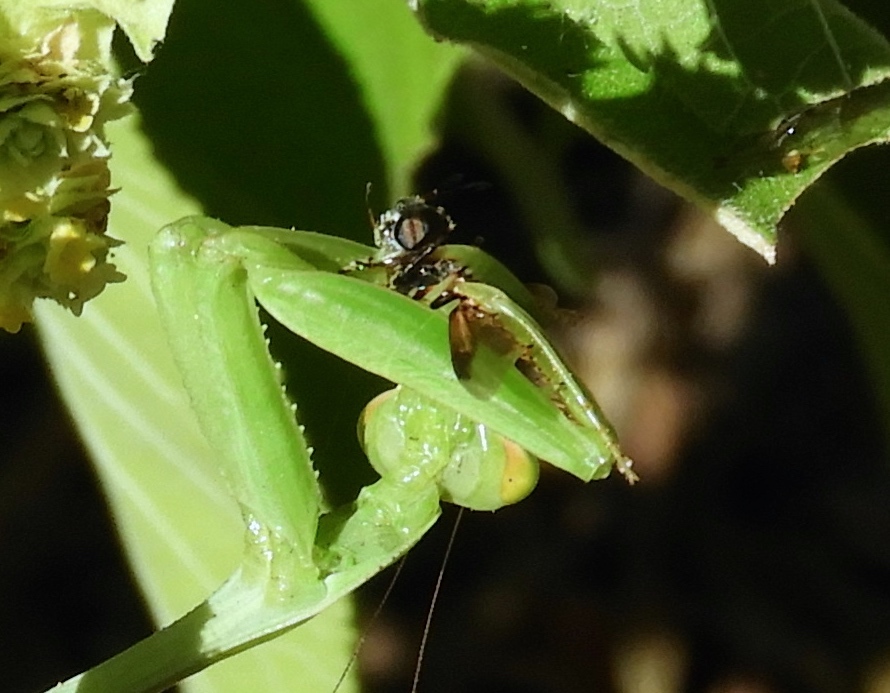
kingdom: Animalia
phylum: Arthropoda
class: Insecta
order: Mantodea
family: Mantidae
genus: Stagmomantis
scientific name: Stagmomantis
